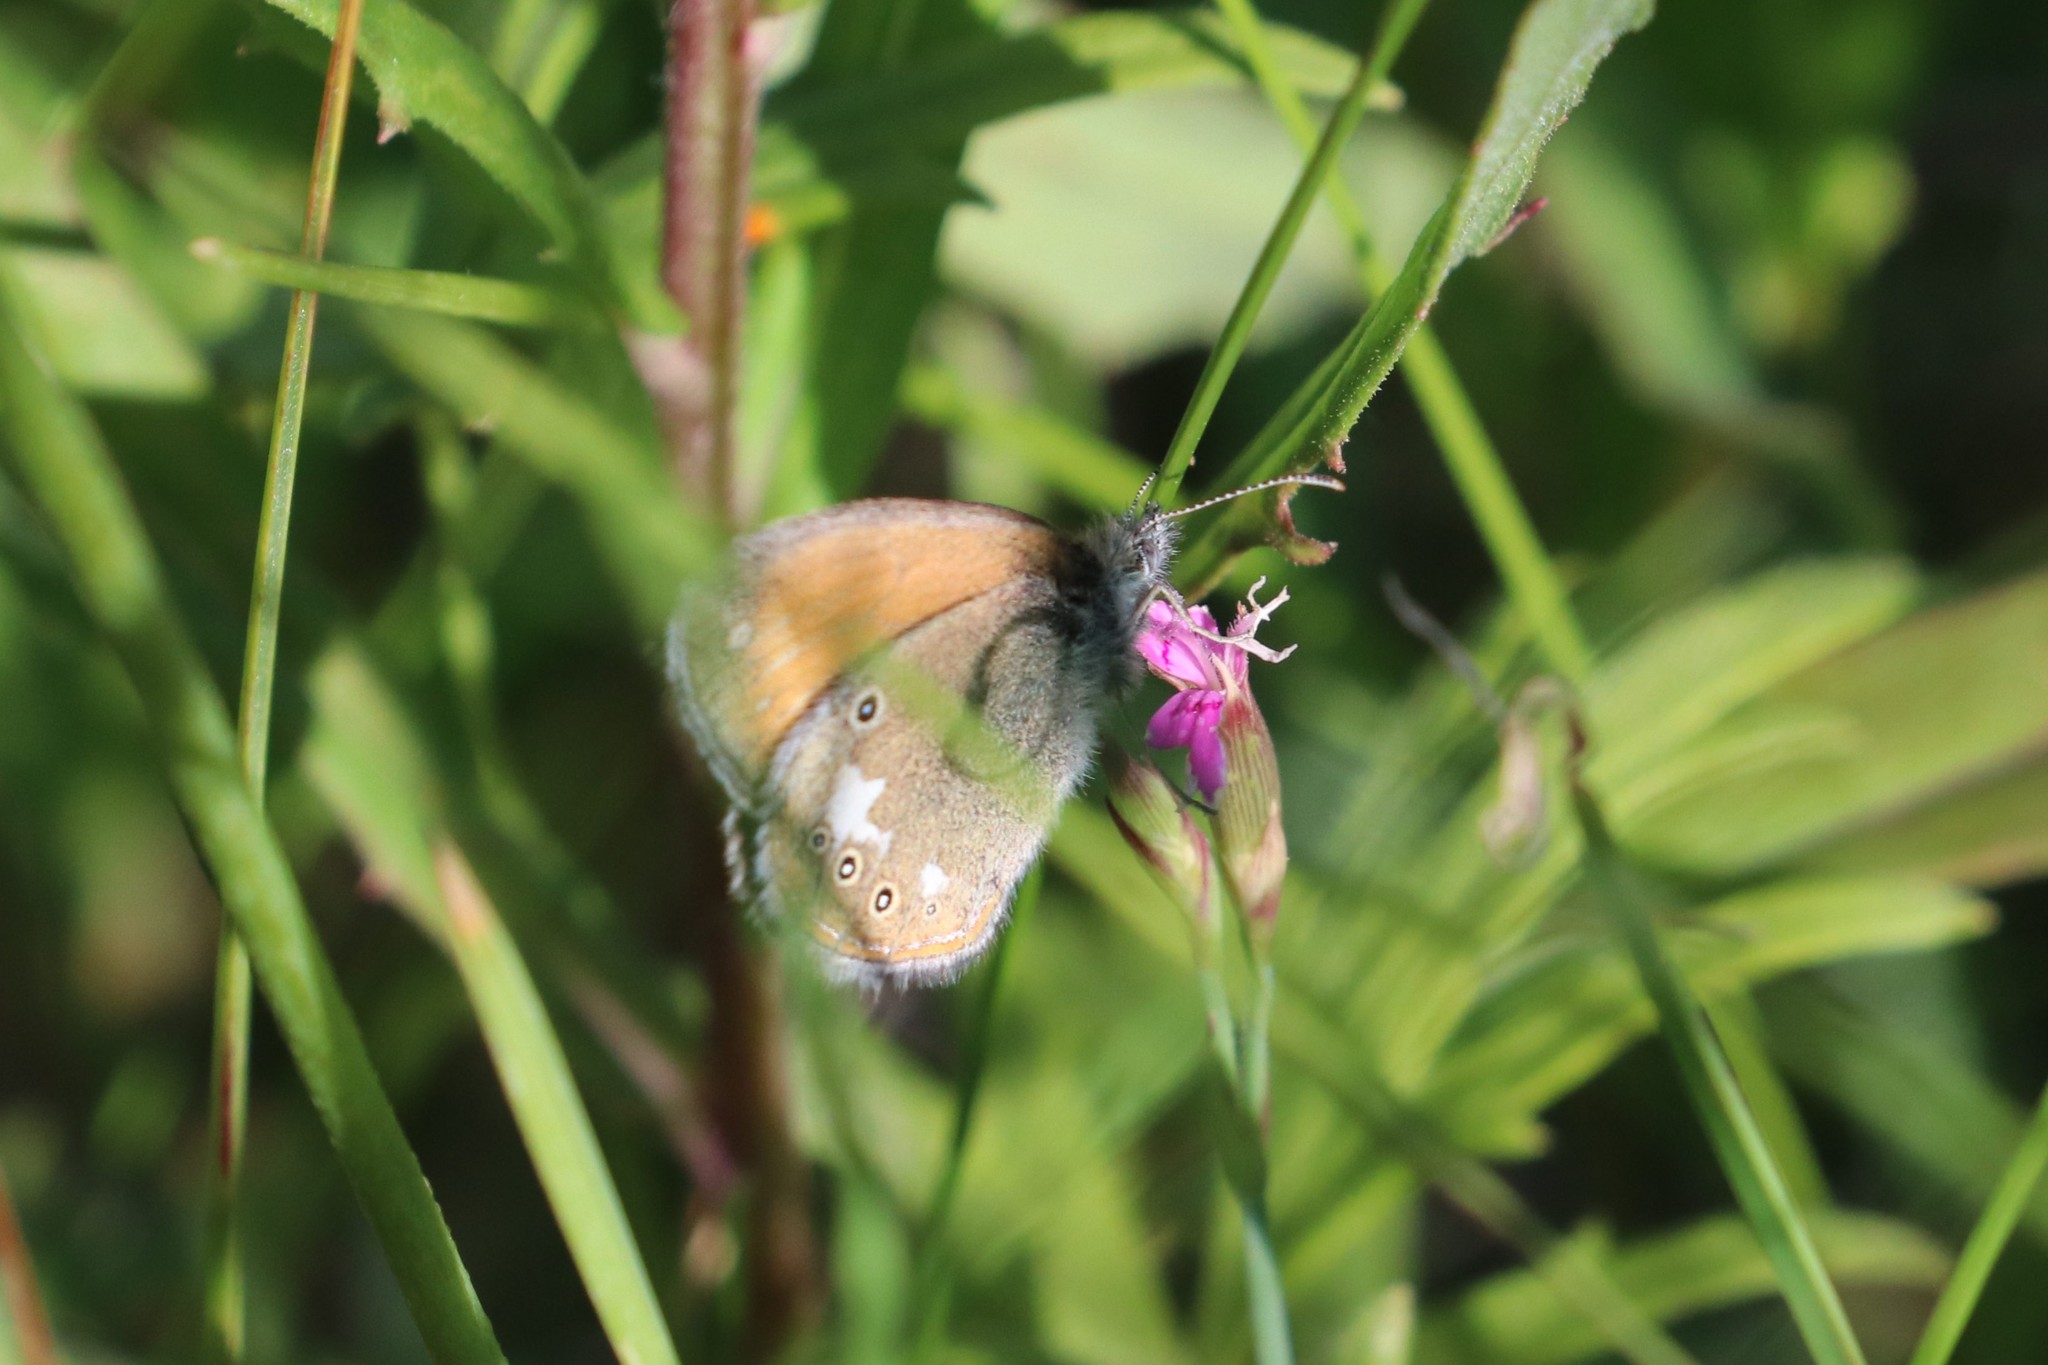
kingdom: Animalia
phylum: Arthropoda
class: Insecta
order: Lepidoptera
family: Nymphalidae
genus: Coenonympha
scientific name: Coenonympha iphis
